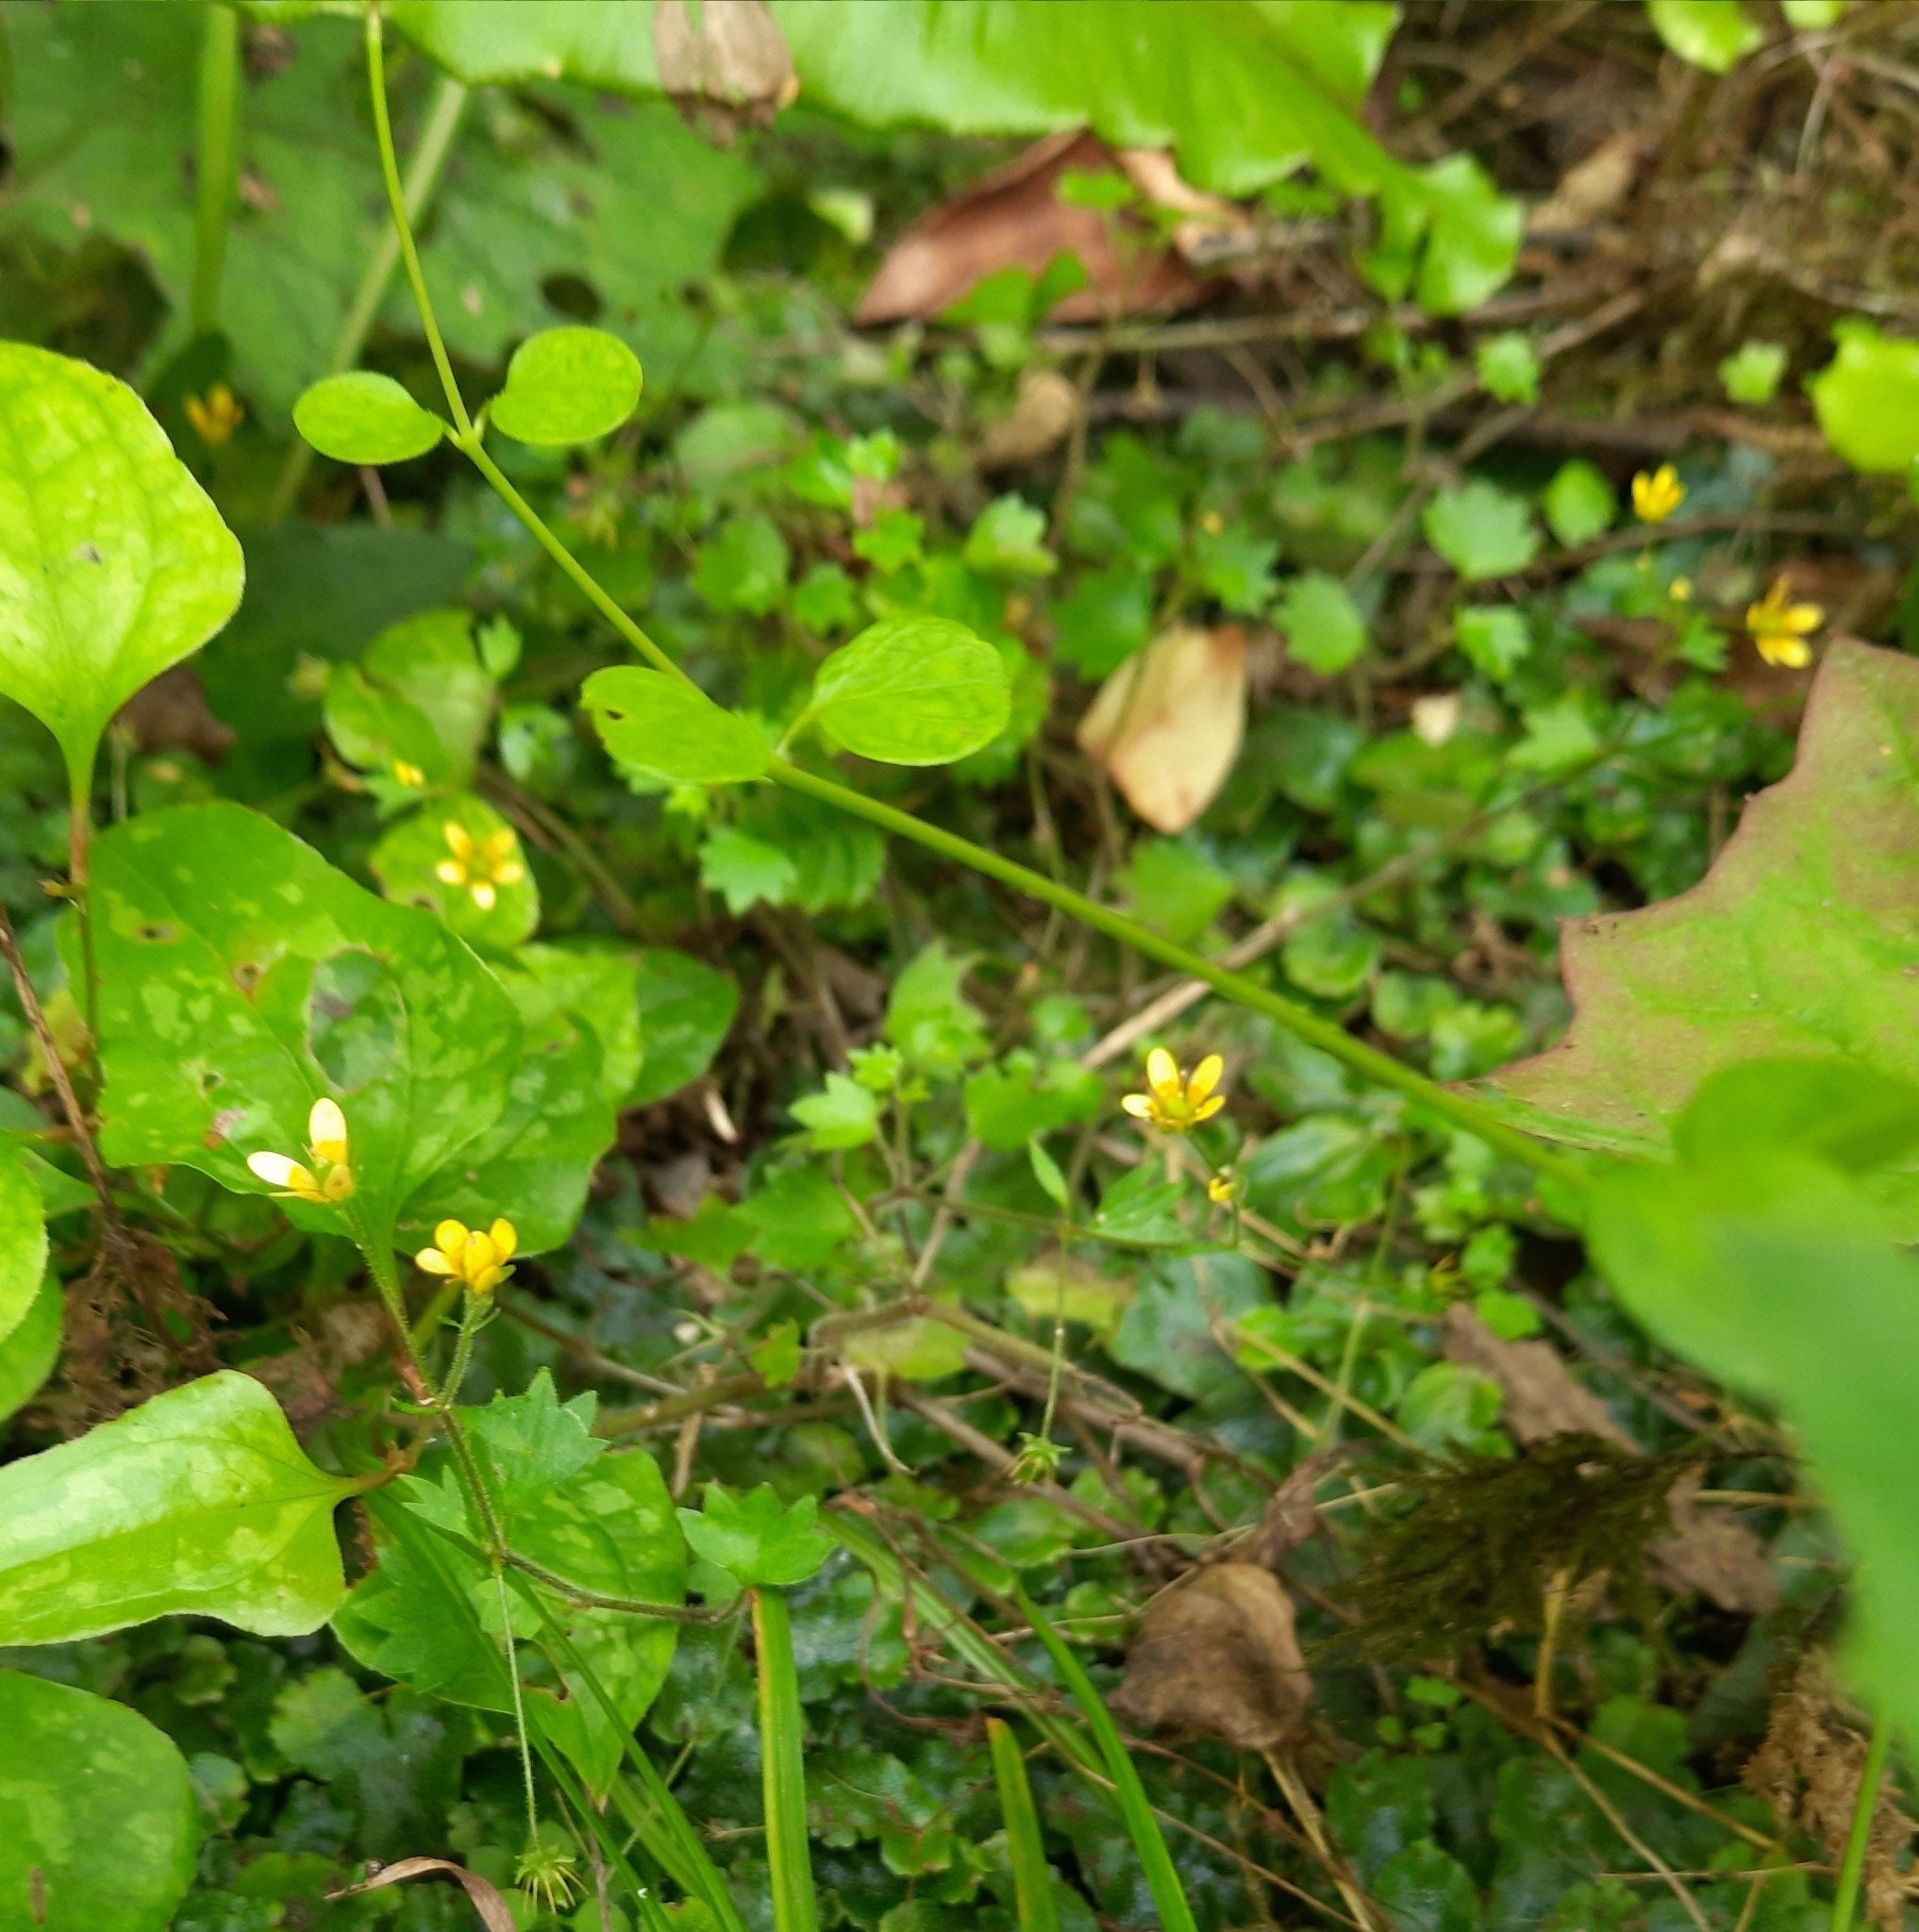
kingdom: Plantae
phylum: Tracheophyta
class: Magnoliopsida
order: Saxifragales
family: Saxifragaceae
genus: Saxifraga
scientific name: Saxifraga cymbalaria
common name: Celandine saxifrage
